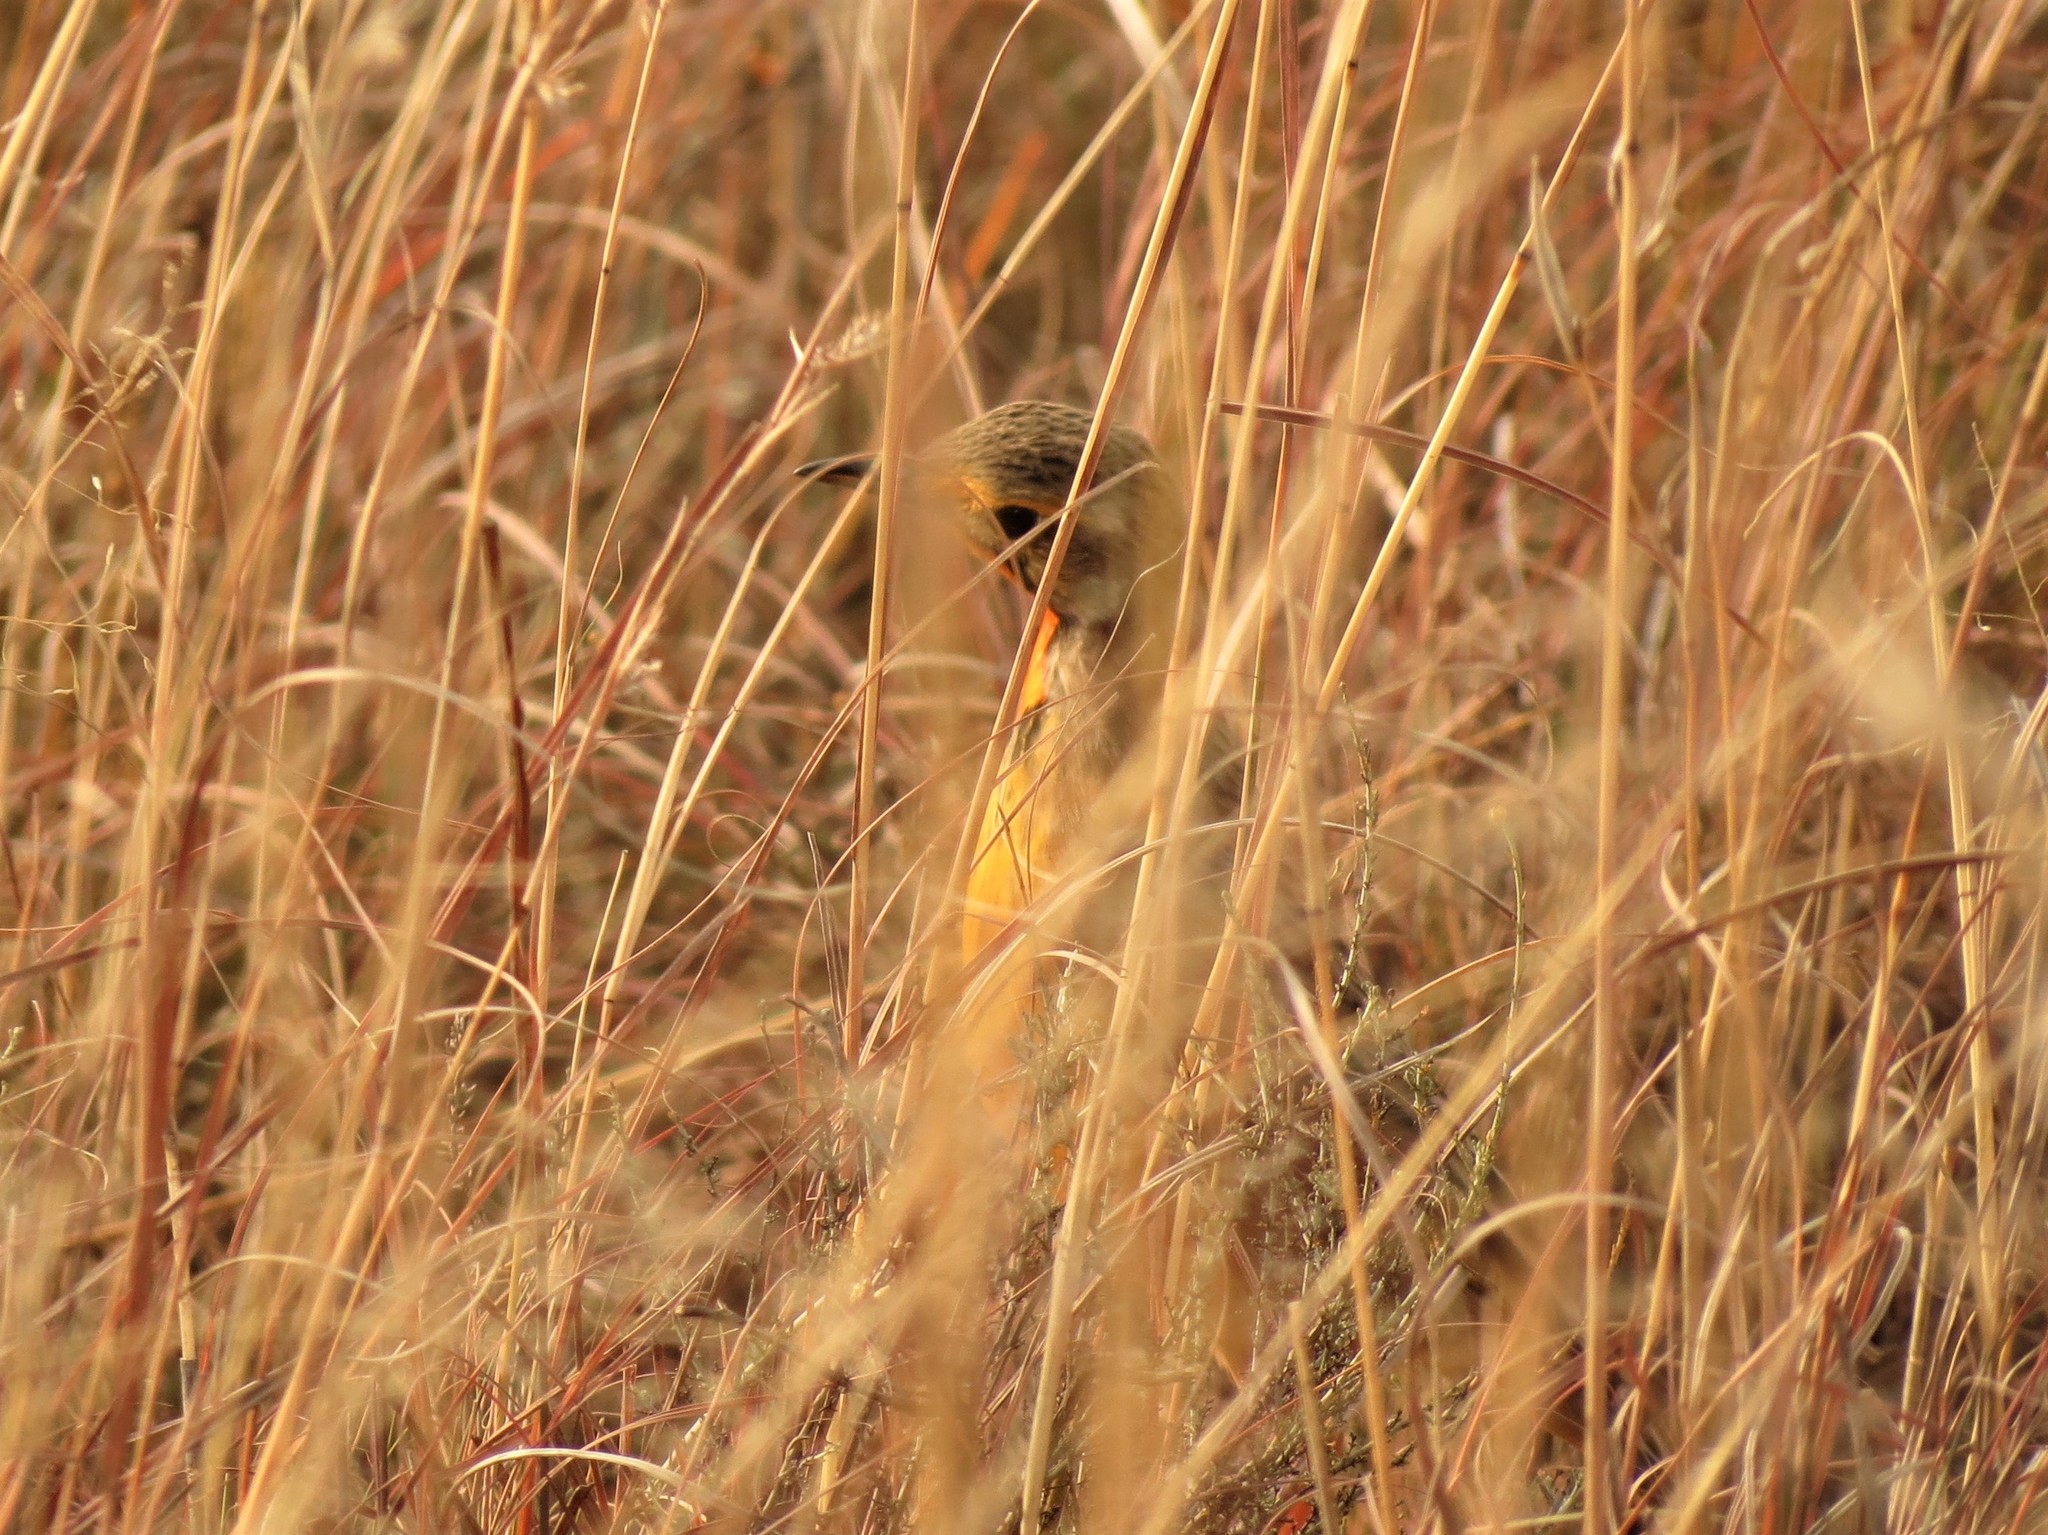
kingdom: Animalia
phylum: Chordata
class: Aves
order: Passeriformes
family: Motacillidae
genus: Macronyx
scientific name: Macronyx capensis
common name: Cape longclaw
